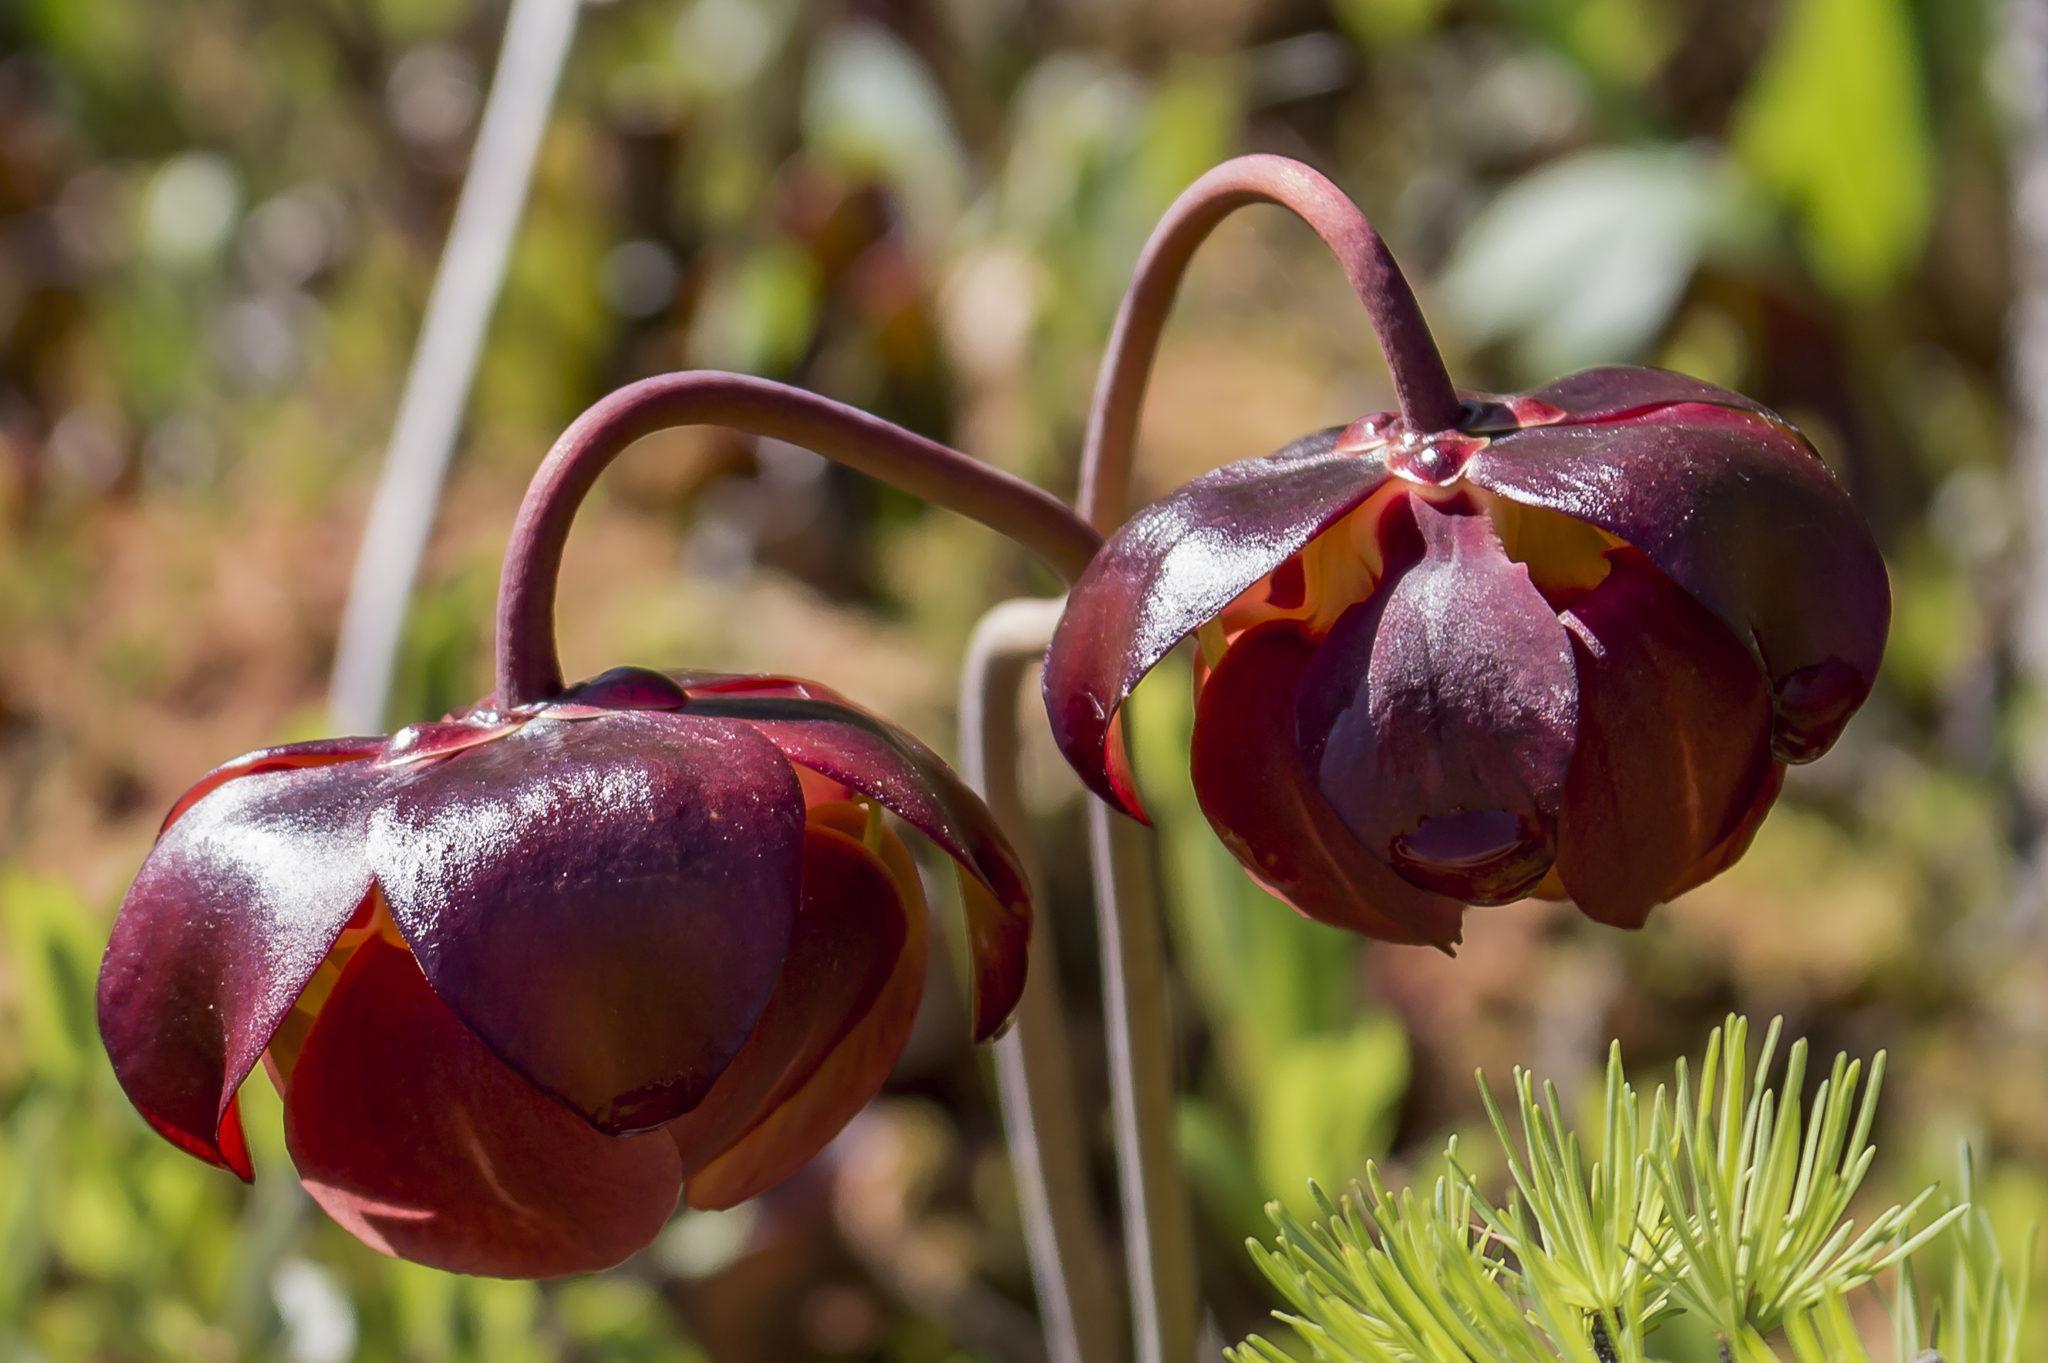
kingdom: Plantae
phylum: Tracheophyta
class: Magnoliopsida
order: Ericales
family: Sarraceniaceae
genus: Sarracenia
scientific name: Sarracenia purpurea
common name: Pitcherplant
